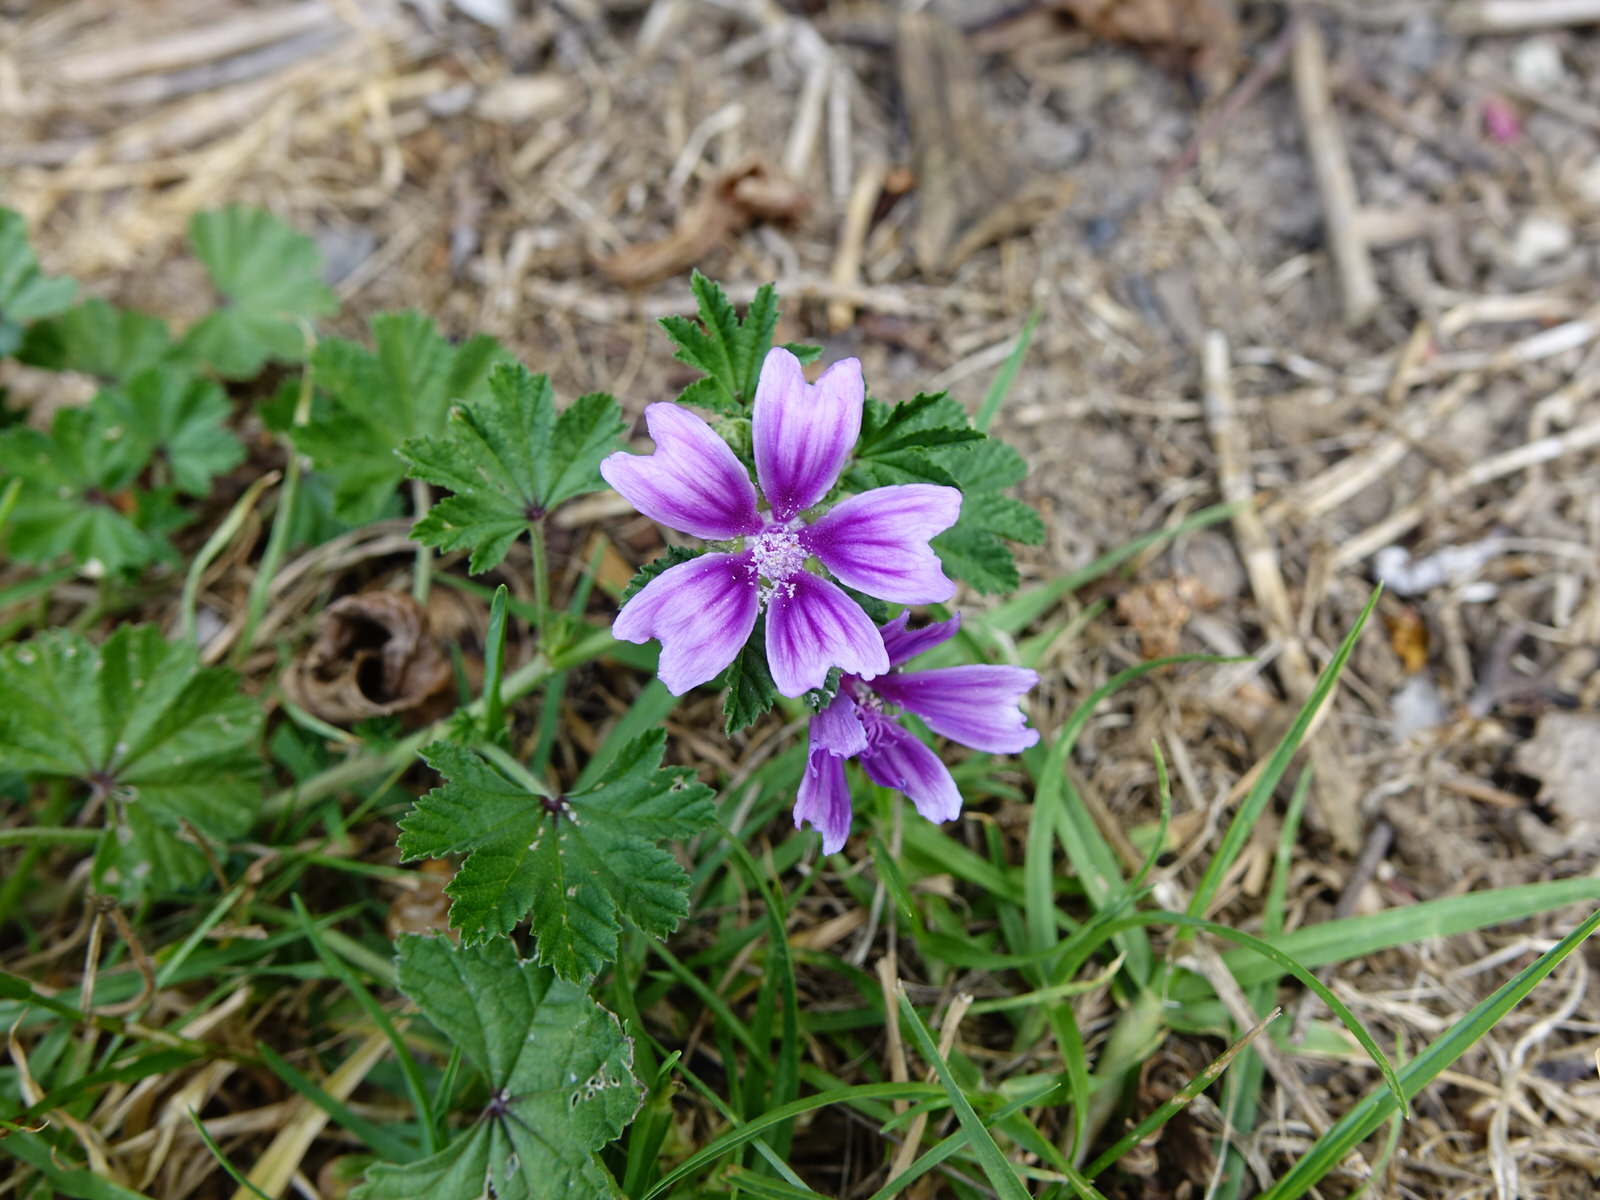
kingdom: Plantae
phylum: Tracheophyta
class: Magnoliopsida
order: Malvales
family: Malvaceae
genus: Malva
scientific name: Malva sylvestris
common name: Common mallow
